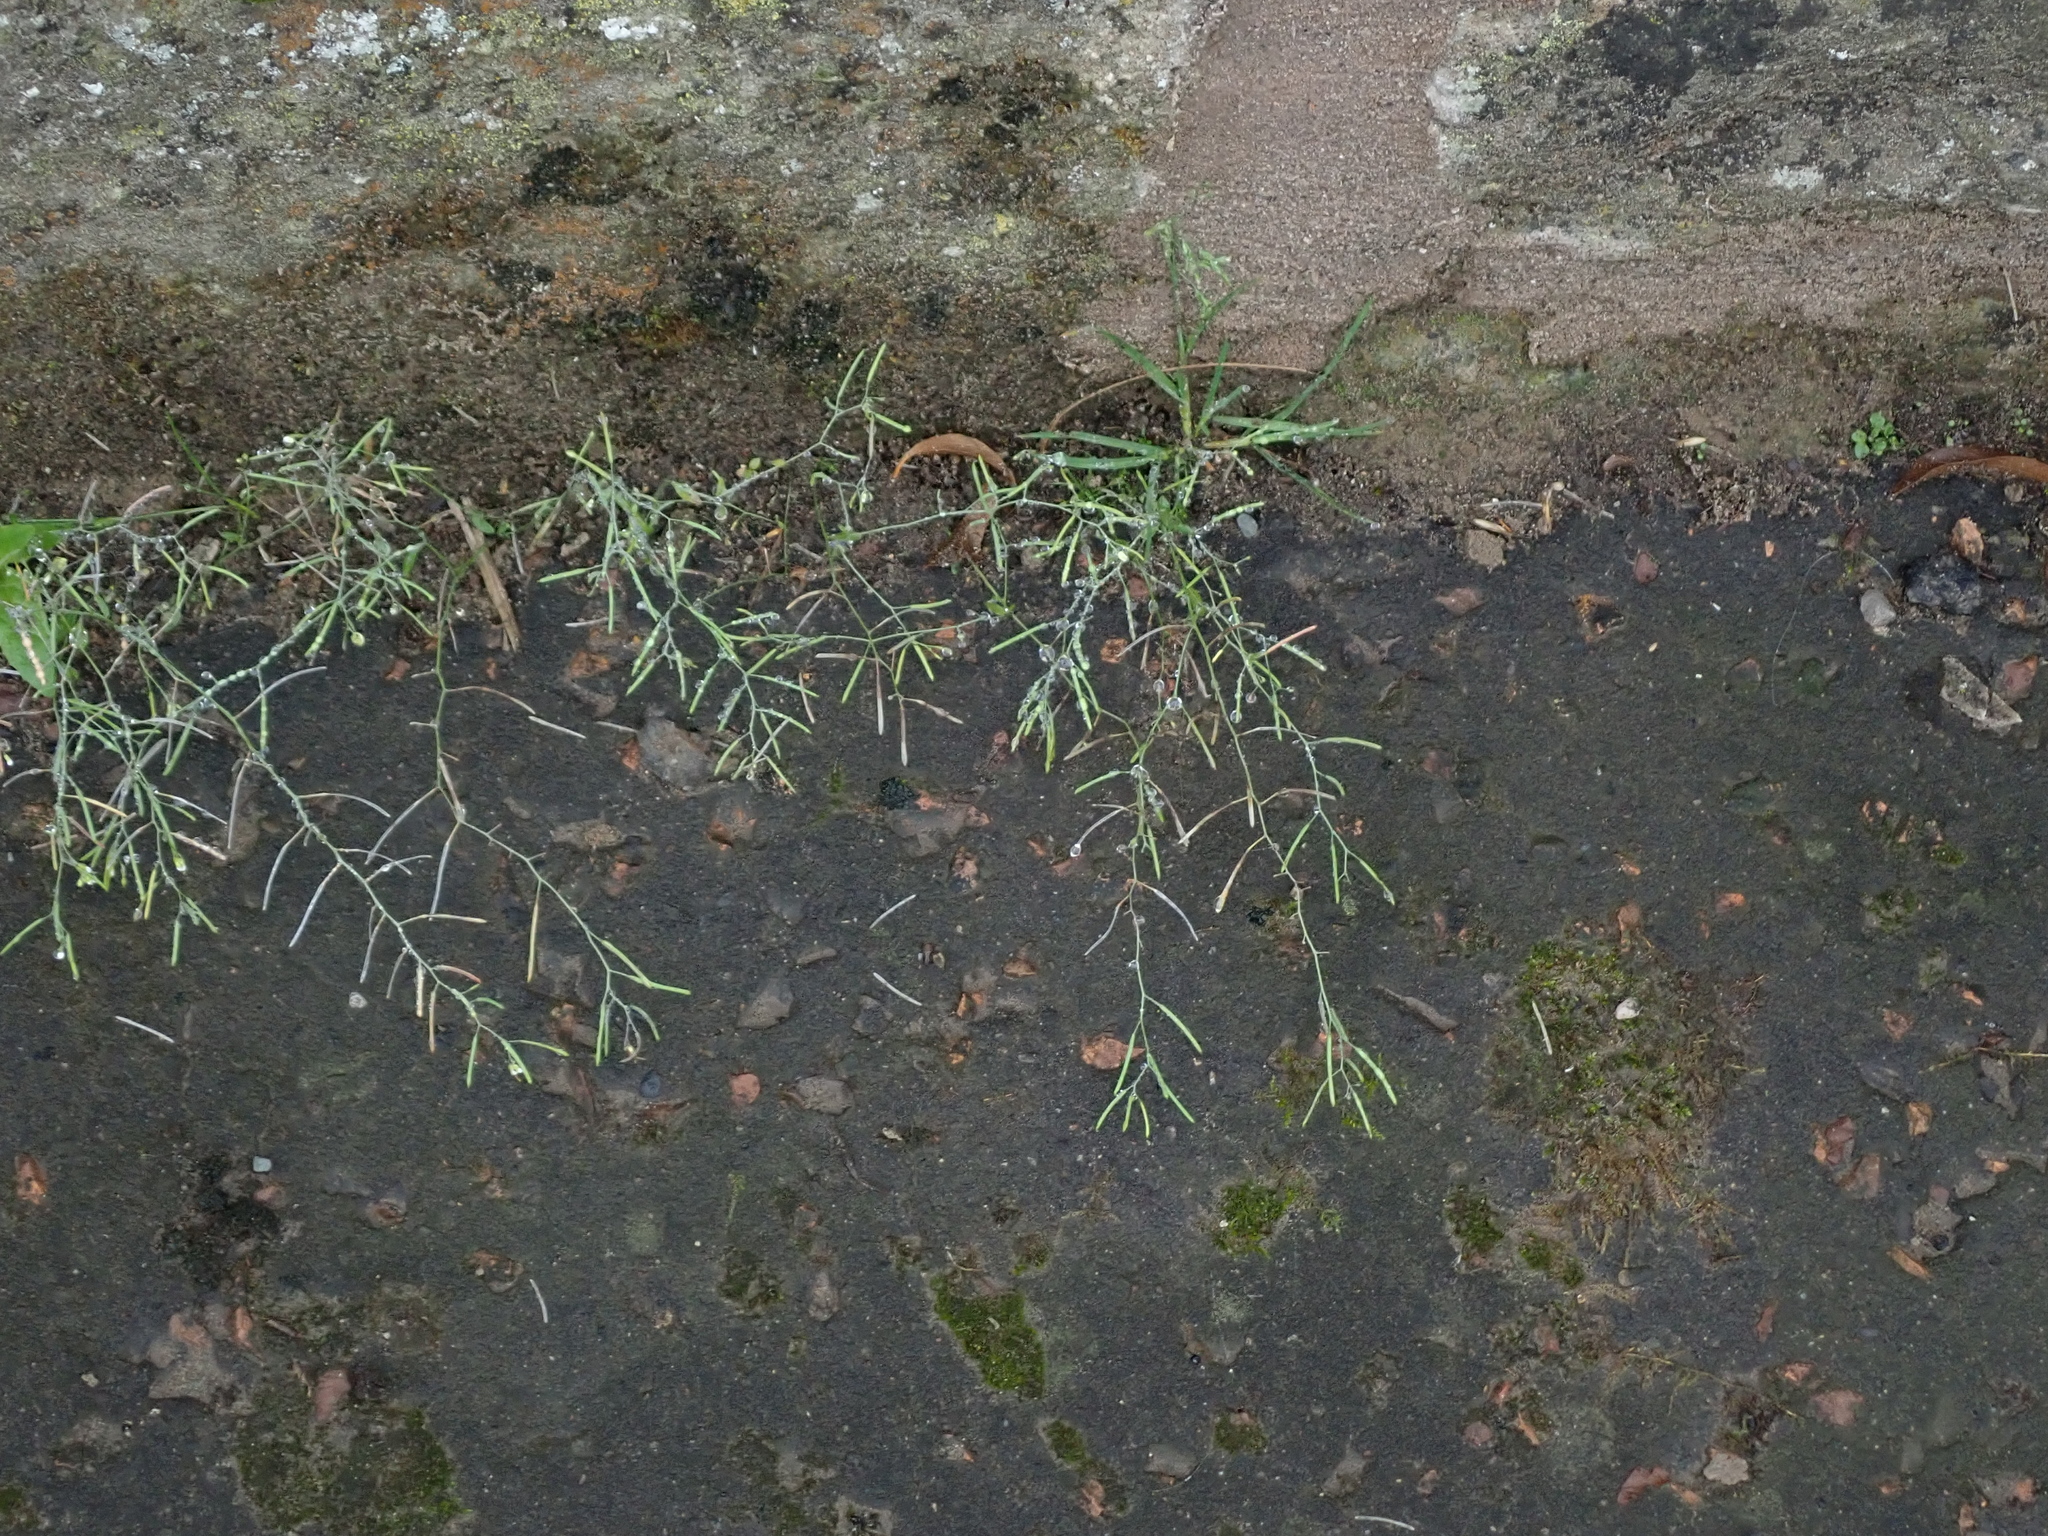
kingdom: Plantae
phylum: Tracheophyta
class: Magnoliopsida
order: Brassicales
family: Brassicaceae
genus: Arabidopsis
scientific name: Arabidopsis thaliana
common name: Thale cress
